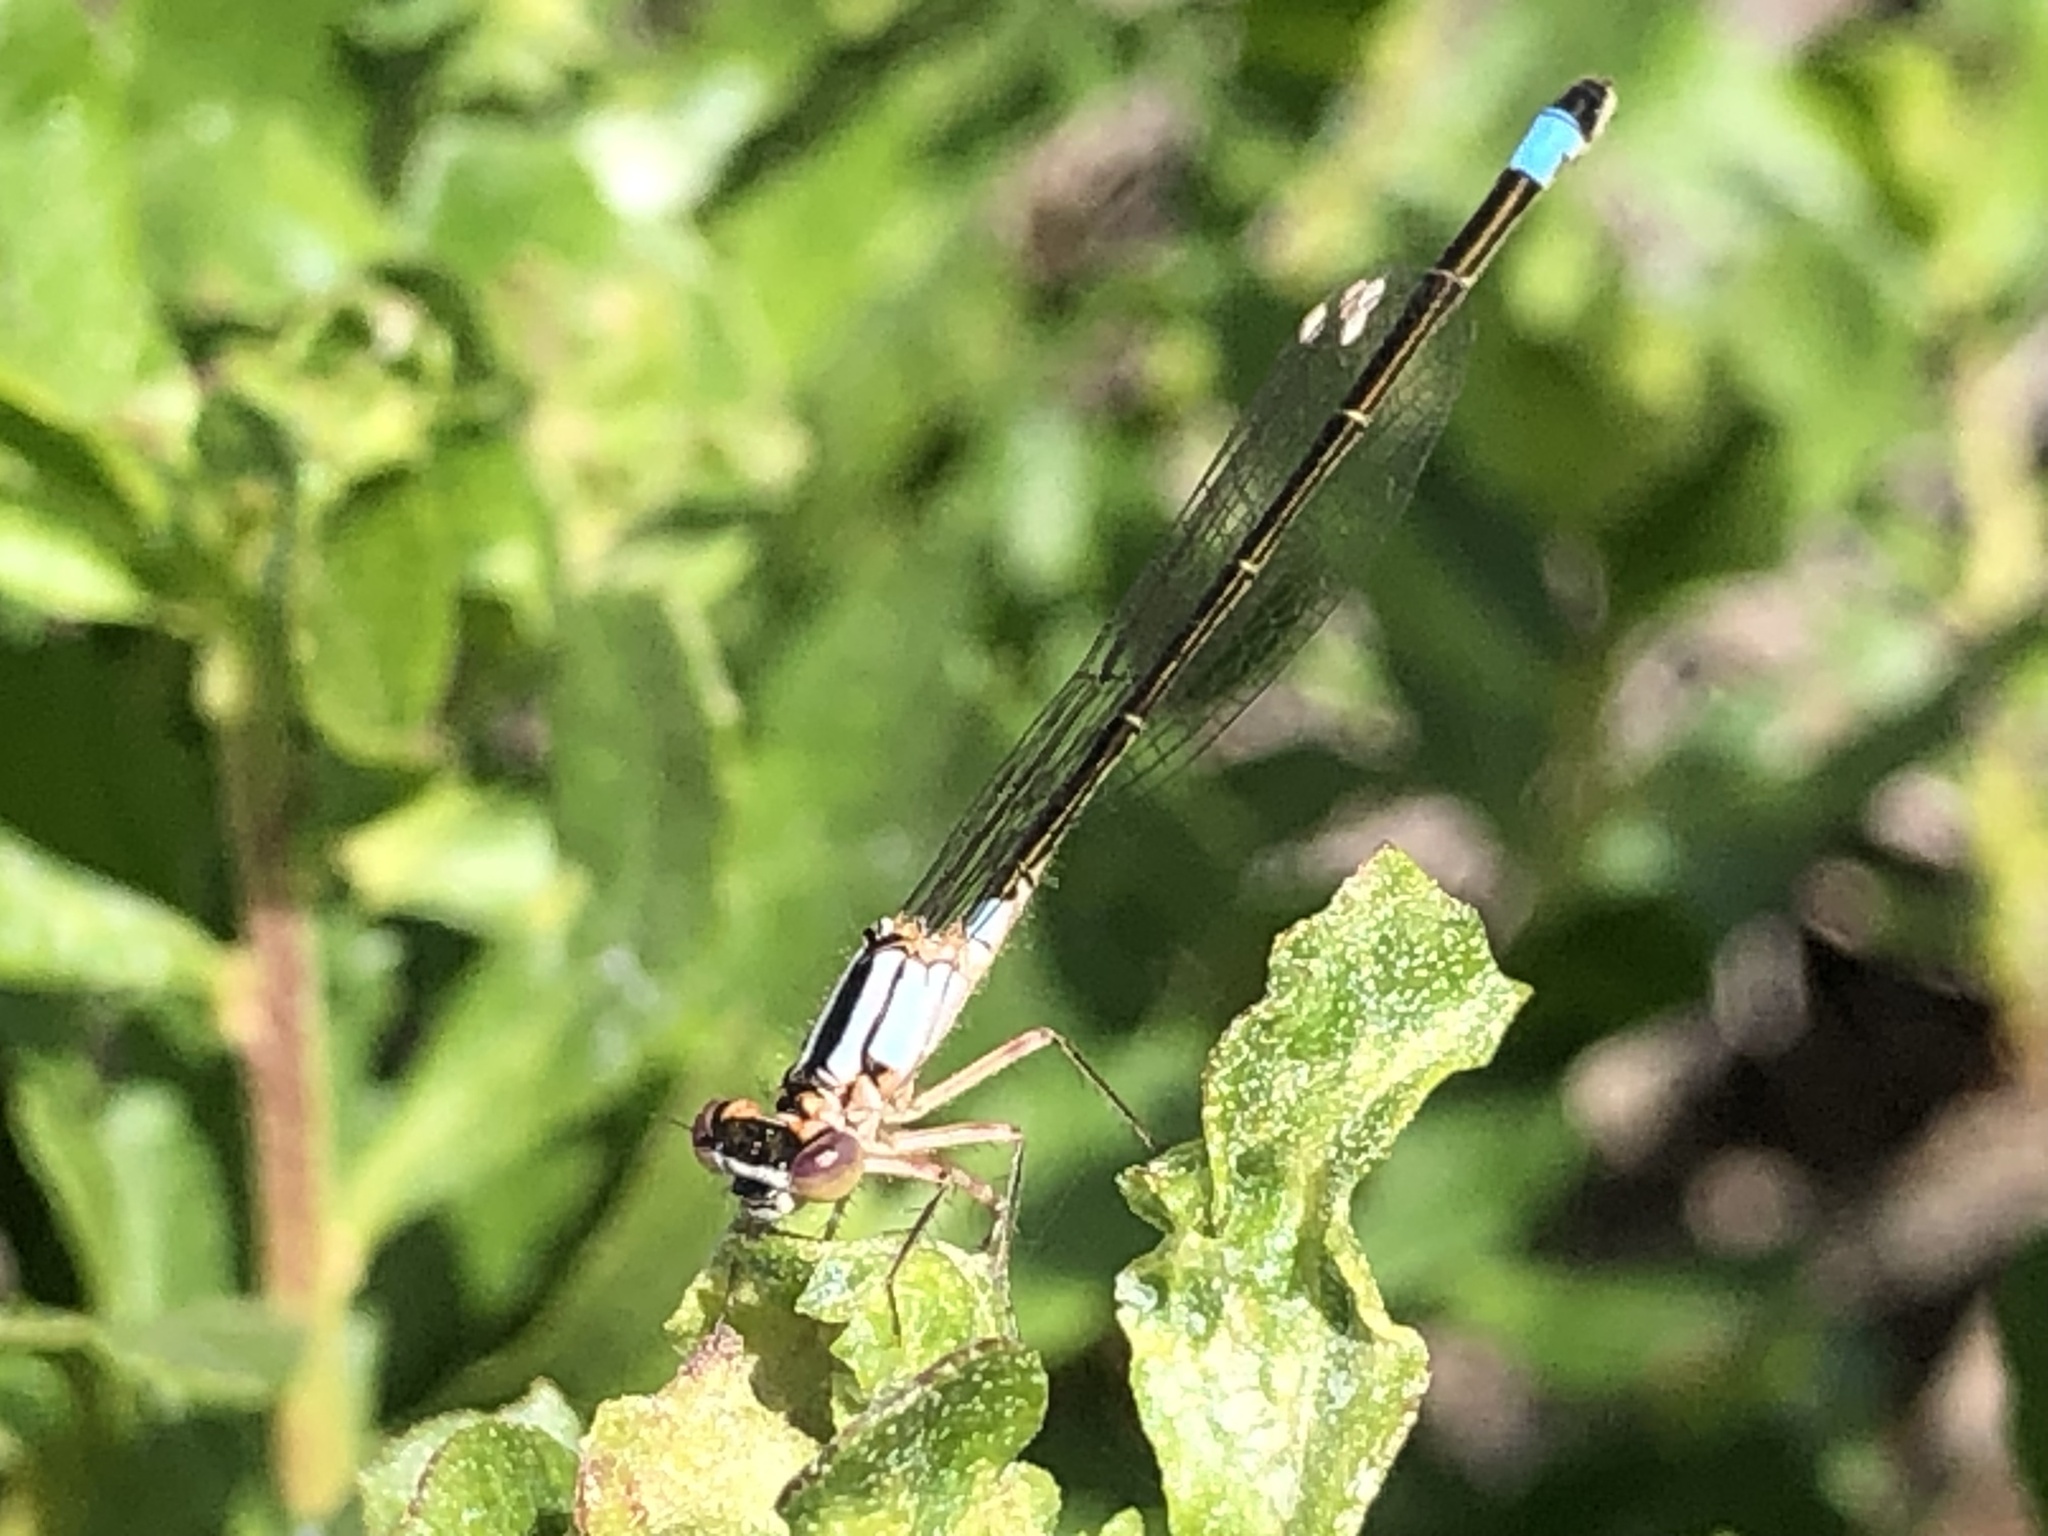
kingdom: Animalia
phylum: Arthropoda
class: Insecta
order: Odonata
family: Coenagrionidae
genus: Ischnura
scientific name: Ischnura cervula
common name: Pacific forktail
